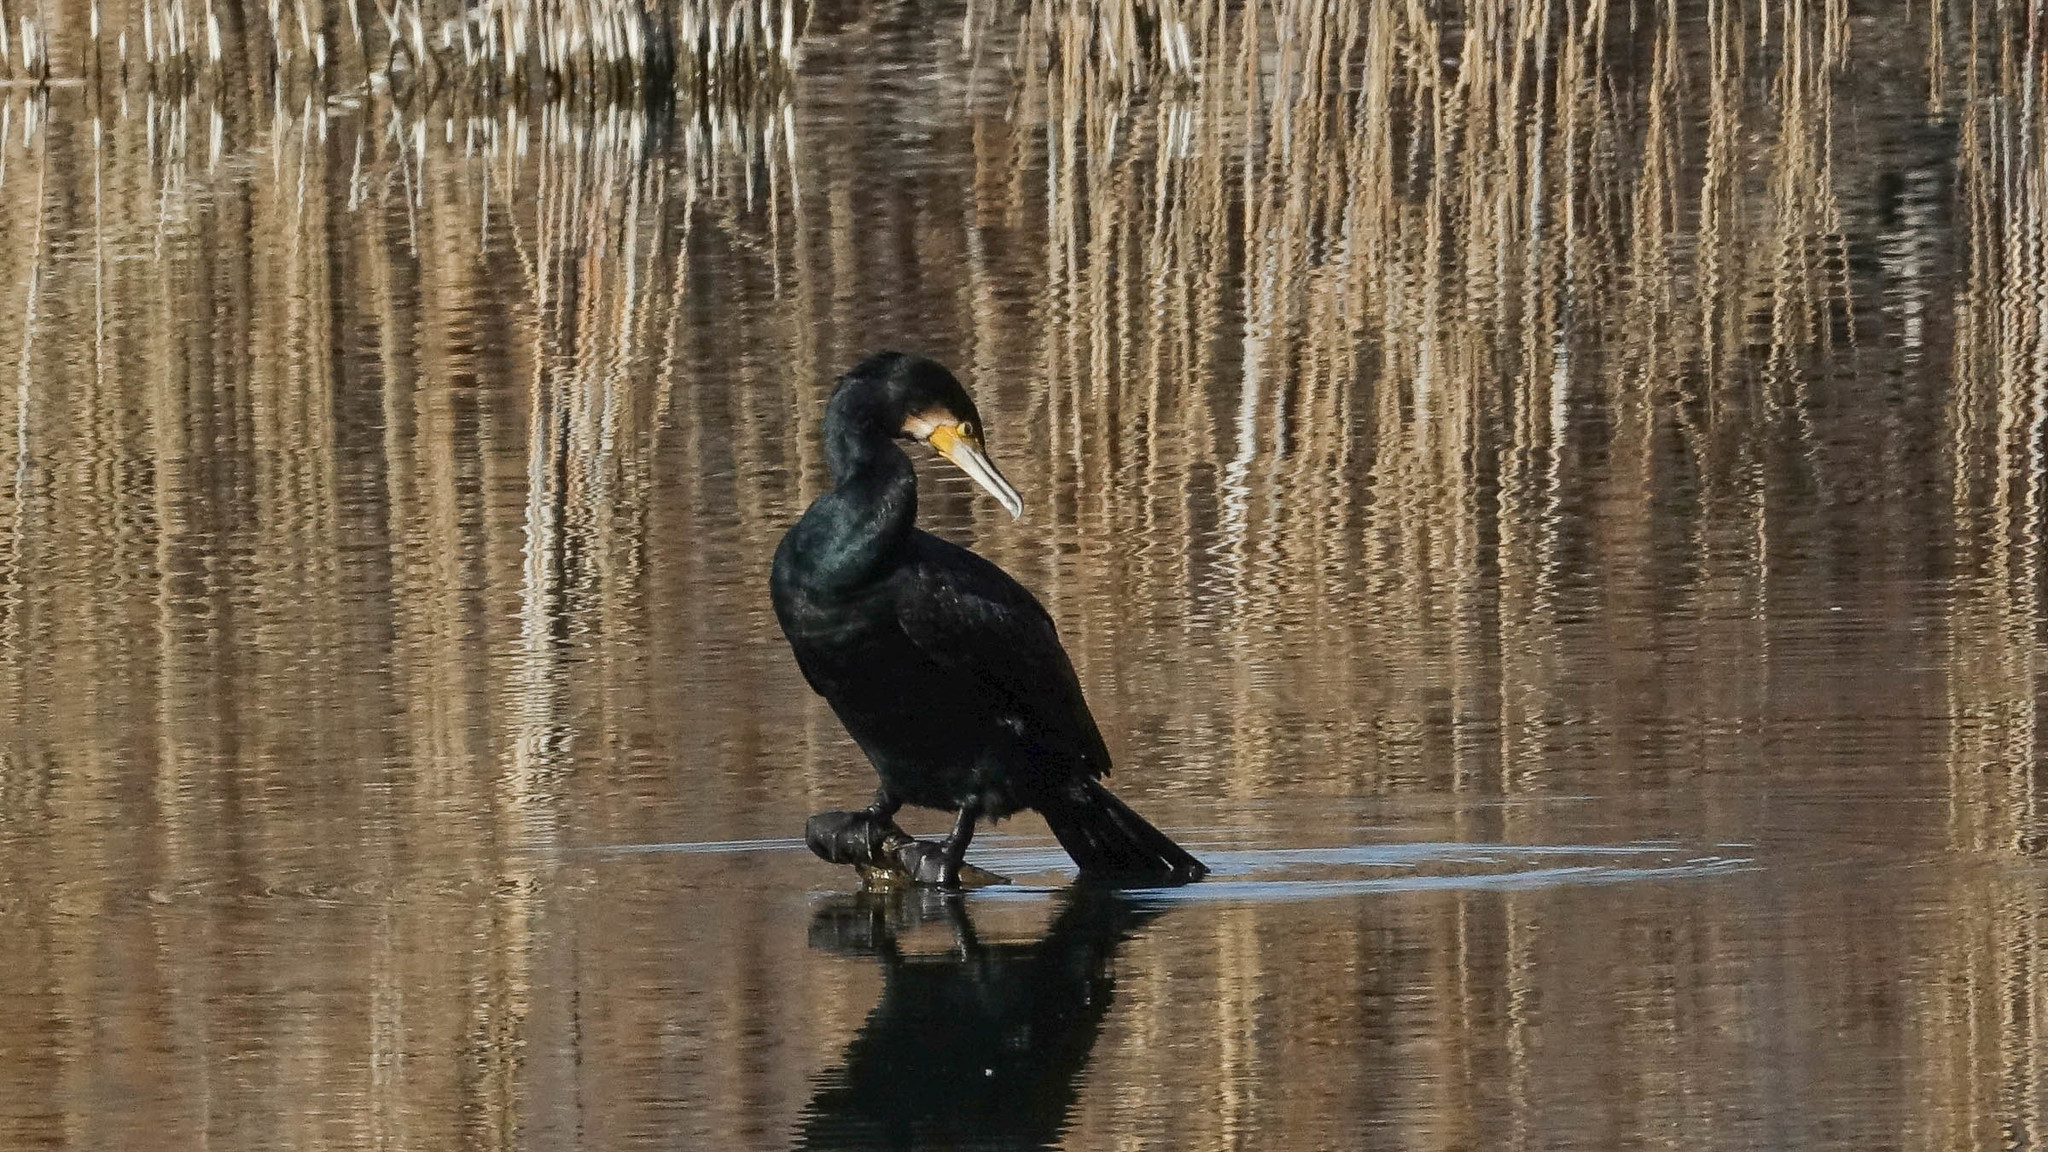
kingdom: Animalia
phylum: Chordata
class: Aves
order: Suliformes
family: Phalacrocoracidae
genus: Phalacrocorax
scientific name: Phalacrocorax carbo
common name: Great cormorant
